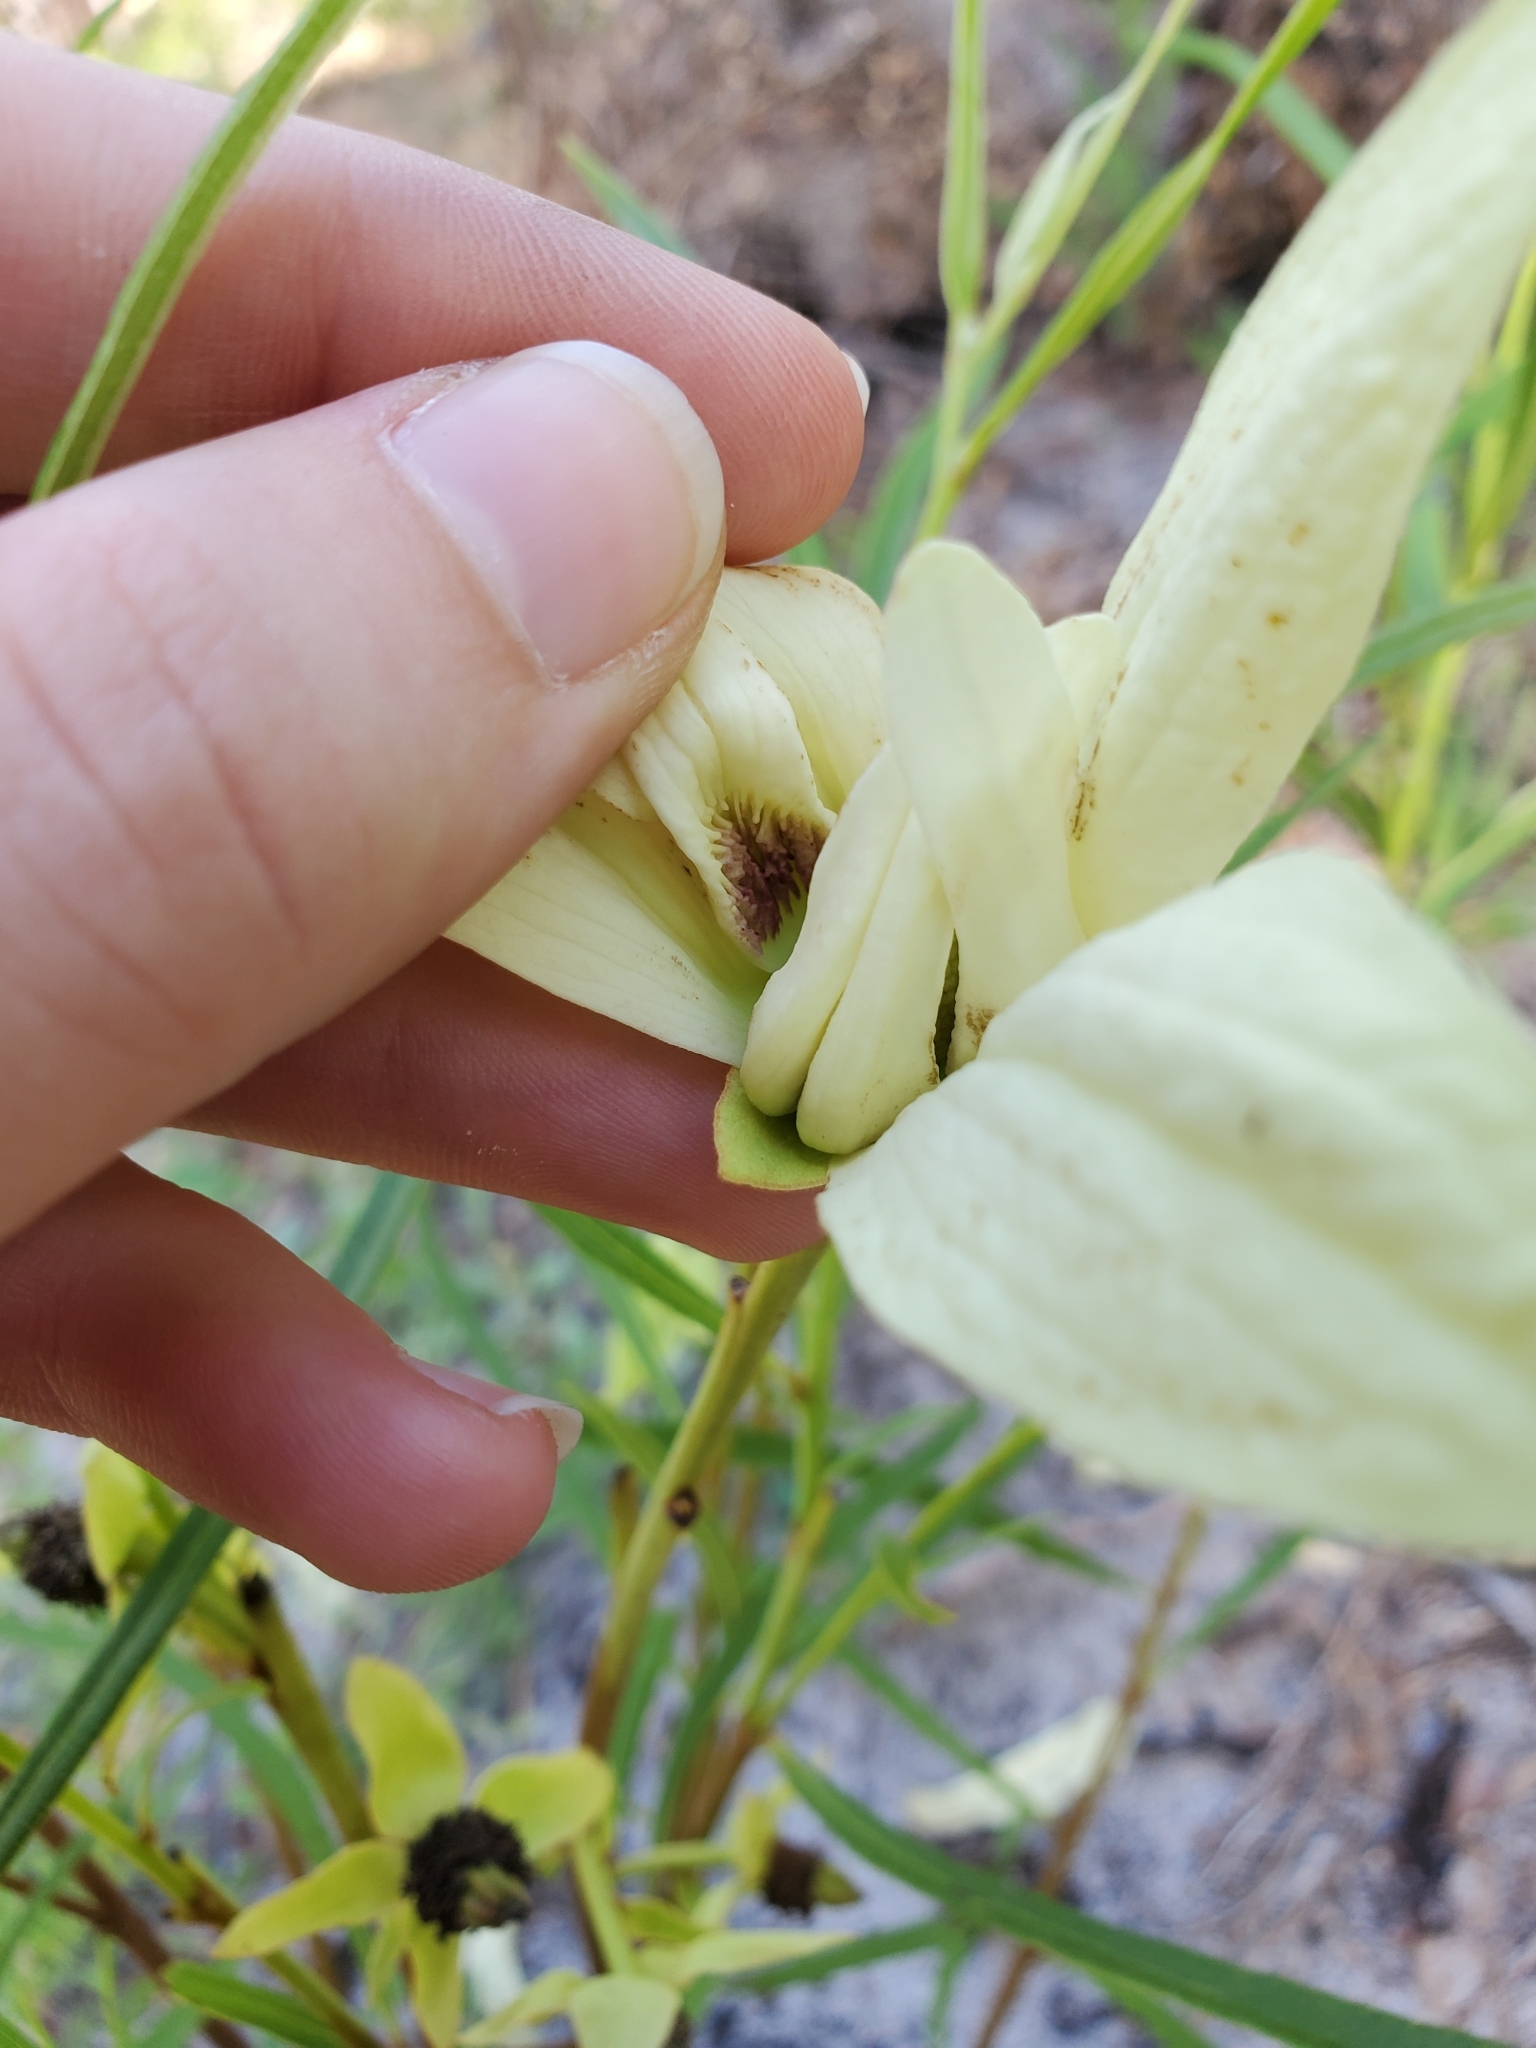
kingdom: Plantae
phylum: Tracheophyta
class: Magnoliopsida
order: Magnoliales
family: Annonaceae
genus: Asimina
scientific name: Asimina longifolia
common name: Polecatbush
